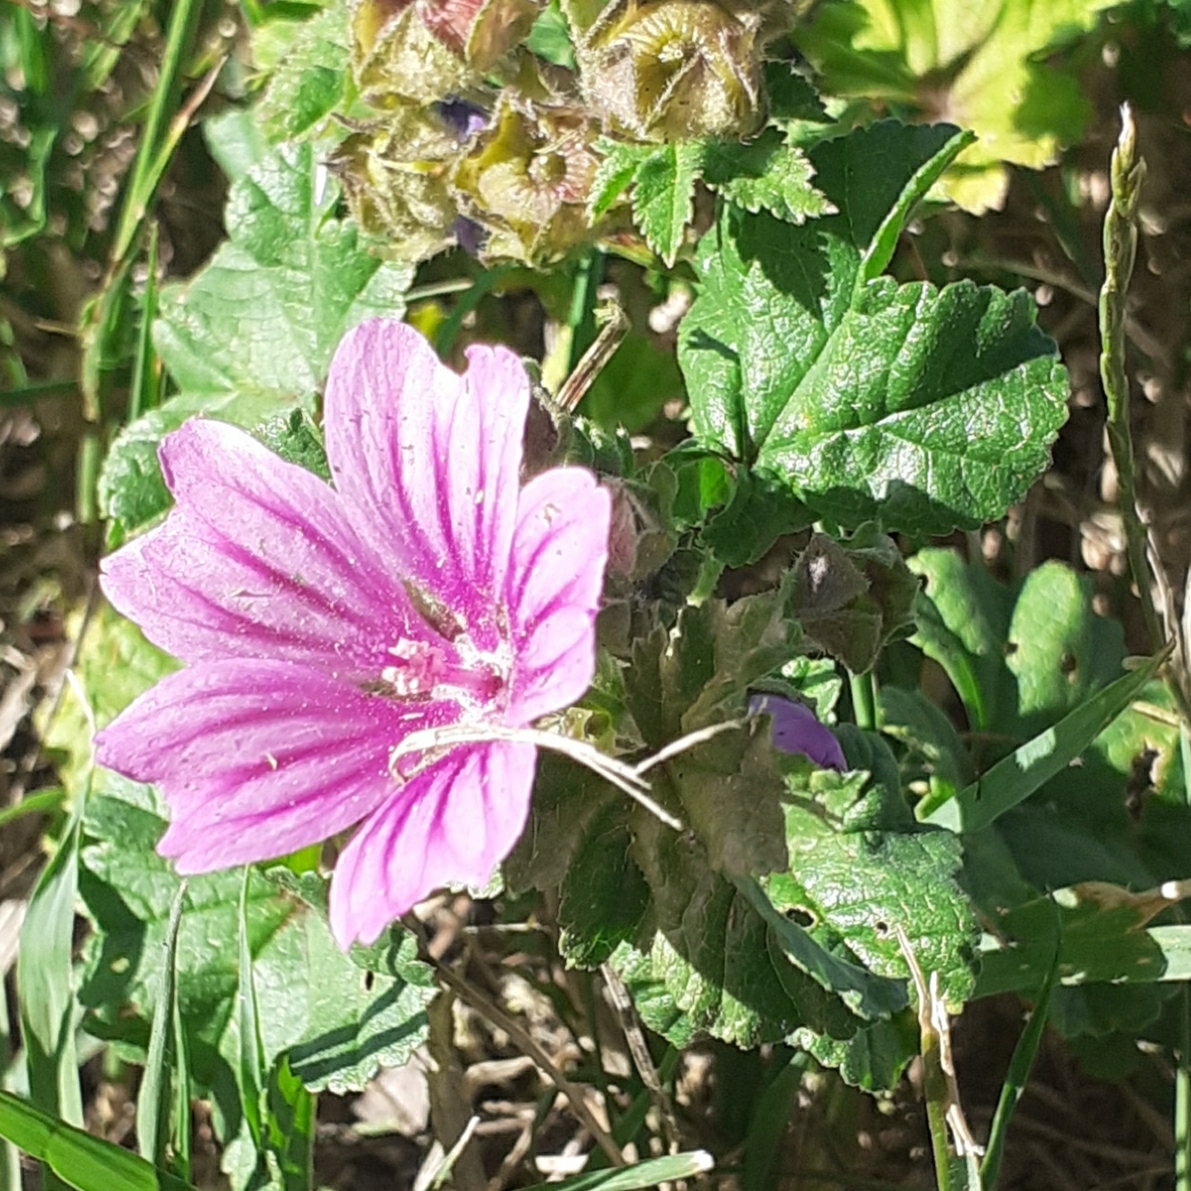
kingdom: Plantae
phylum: Tracheophyta
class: Magnoliopsida
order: Malvales
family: Malvaceae
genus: Malva
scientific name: Malva sylvestris
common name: Common mallow
